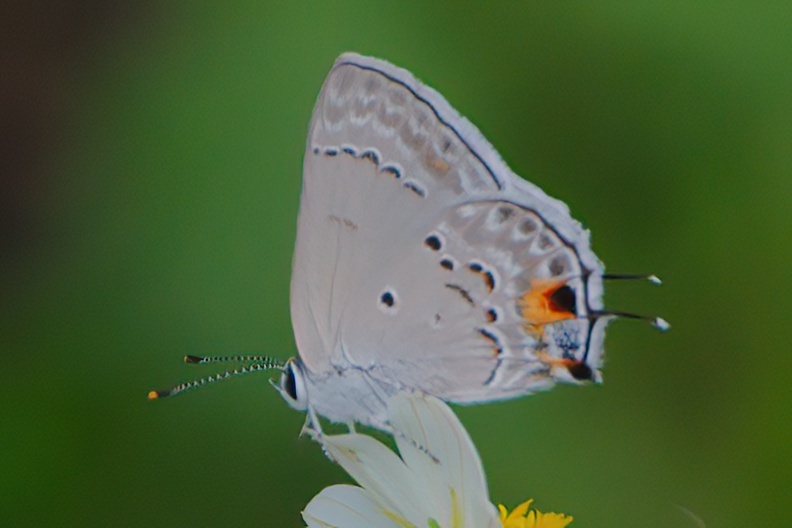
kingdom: Animalia
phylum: Arthropoda
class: Insecta
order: Lepidoptera
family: Lycaenidae
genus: Callicista
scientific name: Callicista columella
